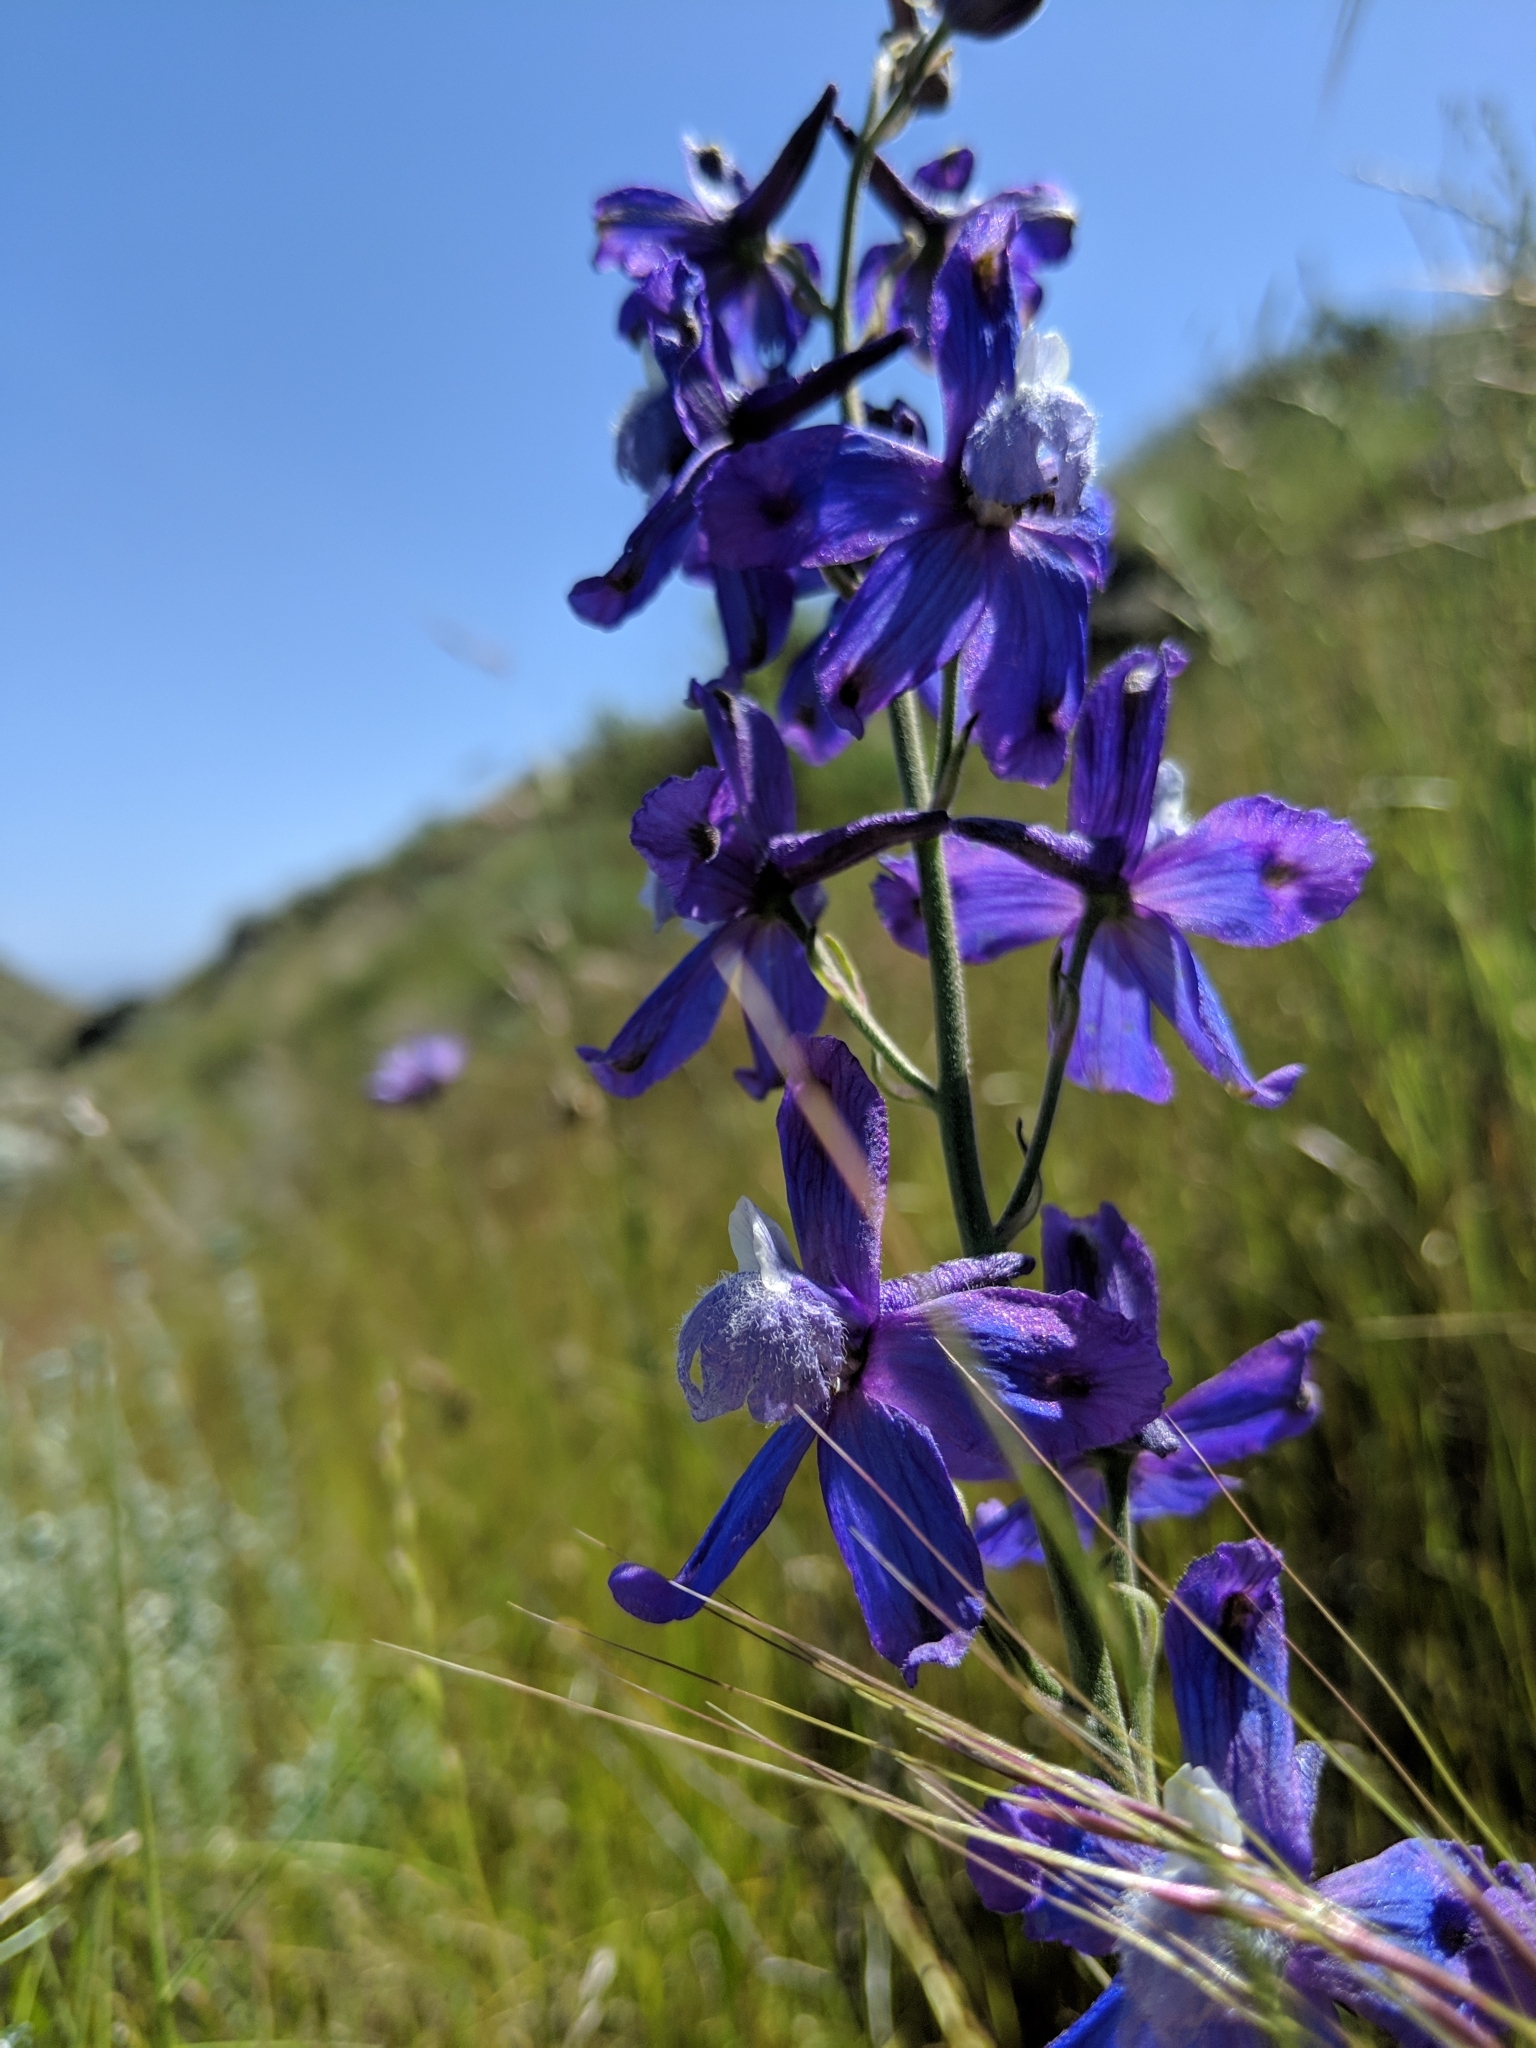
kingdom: Plantae
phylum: Tracheophyta
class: Magnoliopsida
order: Ranunculales
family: Ranunculaceae
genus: Delphinium
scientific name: Delphinium parryi
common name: Parry's larkspur
